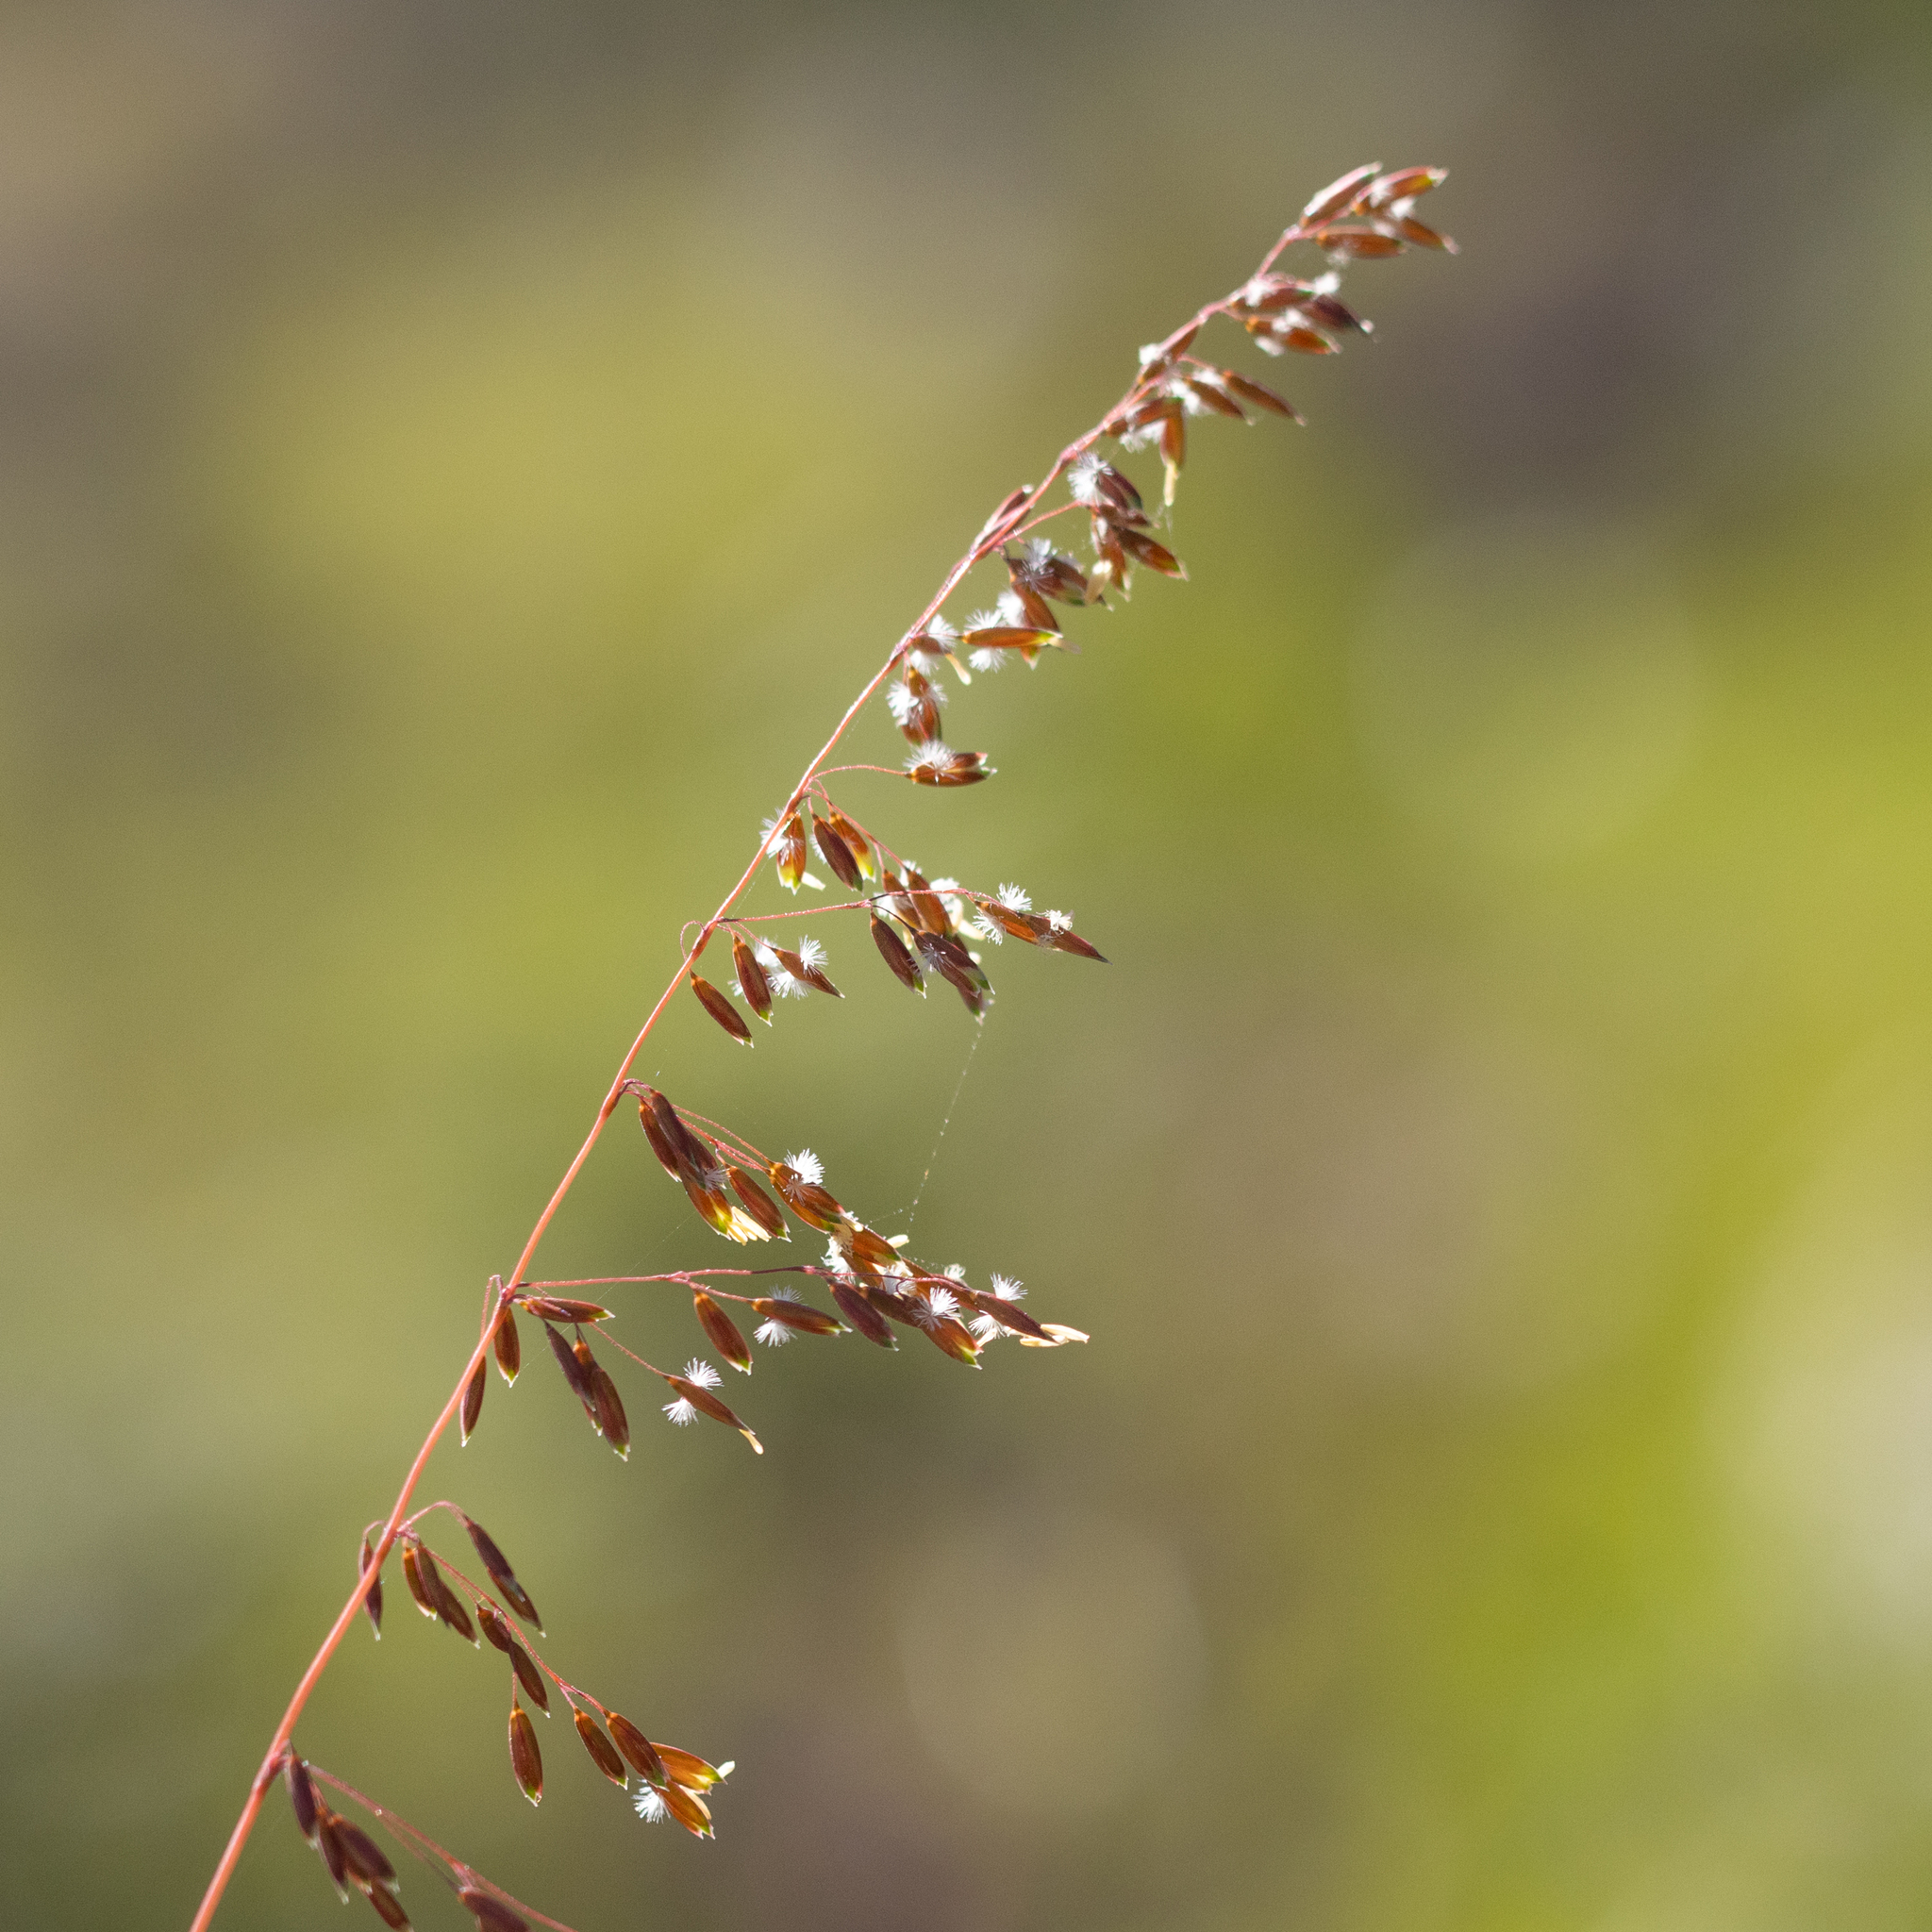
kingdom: Plantae
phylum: Tracheophyta
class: Liliopsida
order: Poales
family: Poaceae
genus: Ehrharta
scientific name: Ehrharta calycina
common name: Perennial veldtgrass
